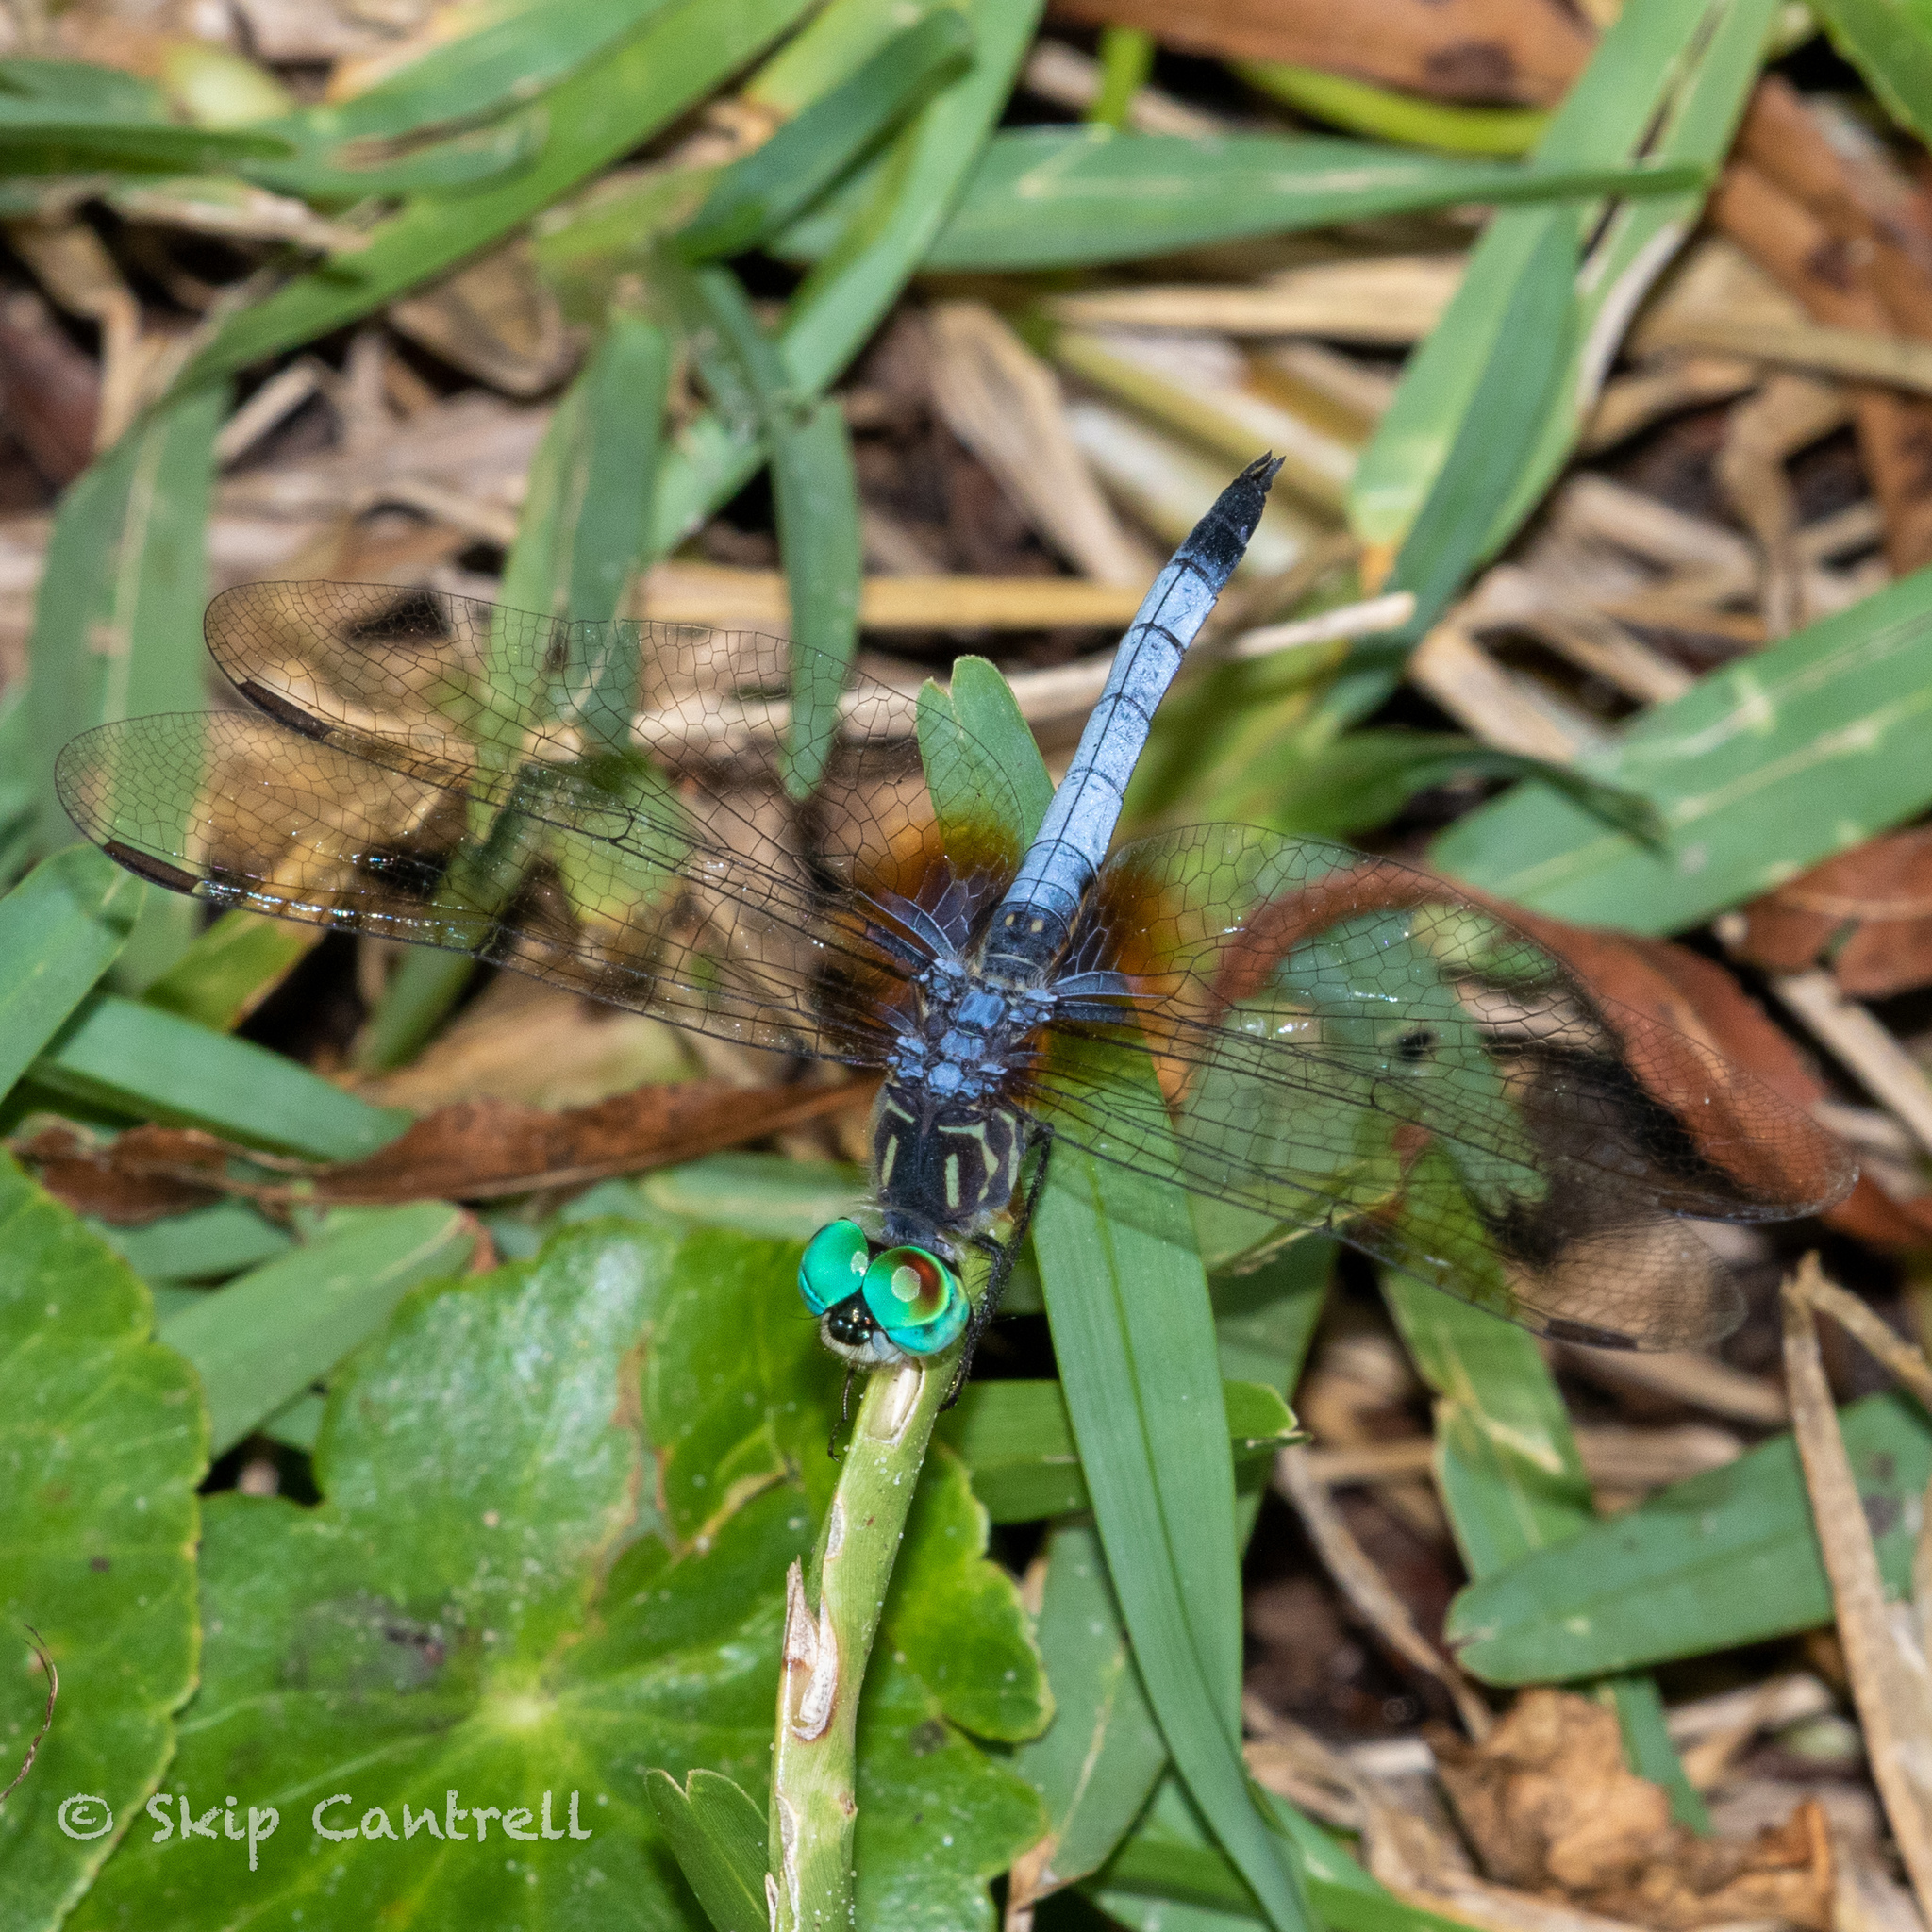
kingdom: Animalia
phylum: Arthropoda
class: Insecta
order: Odonata
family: Libellulidae
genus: Pachydiplax
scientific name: Pachydiplax longipennis
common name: Blue dasher
